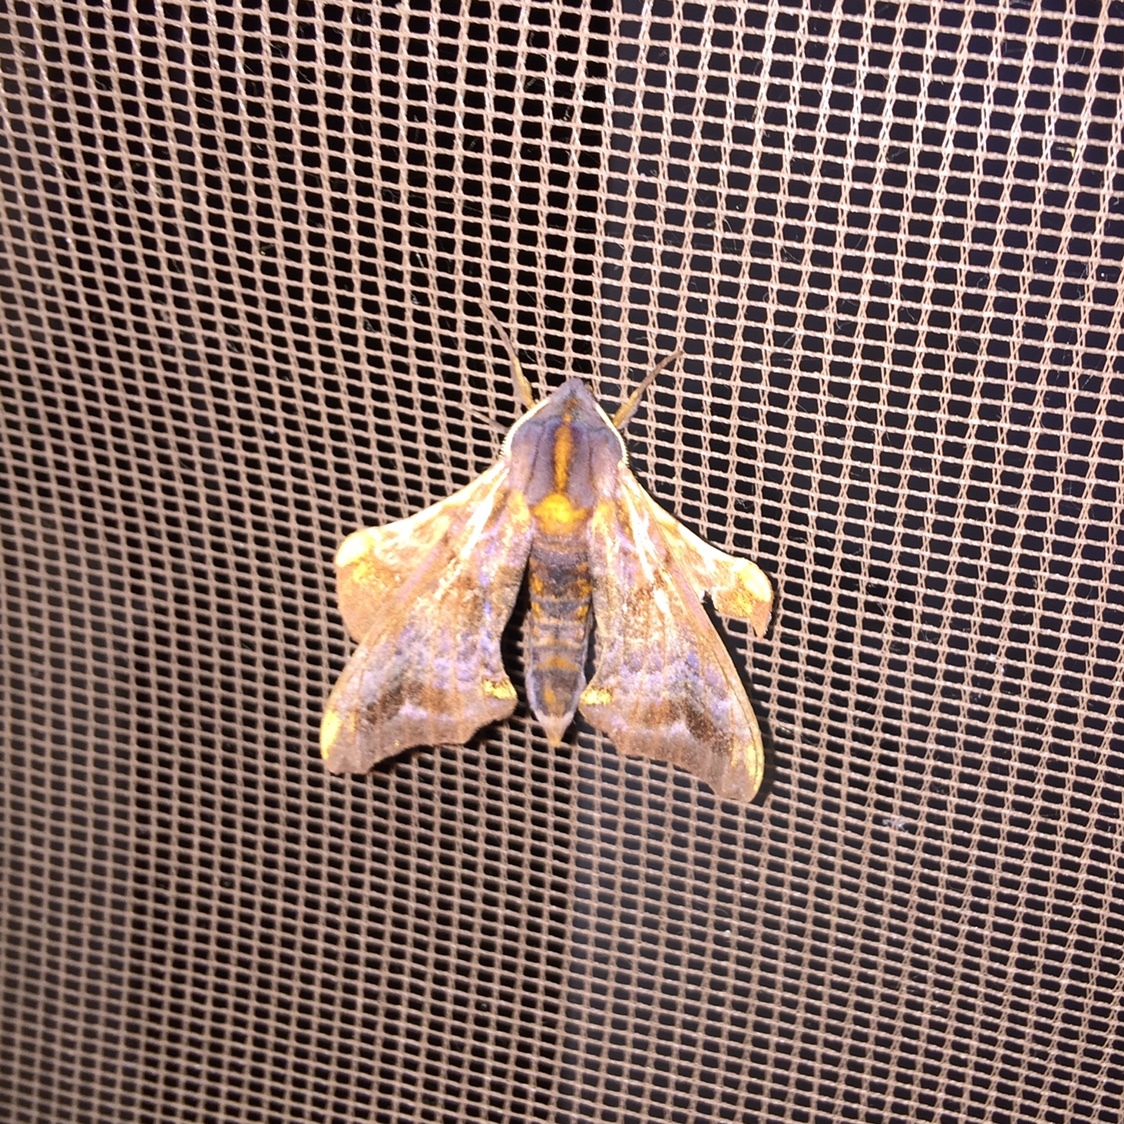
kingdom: Animalia
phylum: Arthropoda
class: Insecta
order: Lepidoptera
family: Sphingidae
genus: Paonias
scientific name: Paonias myops
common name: Small-eyed sphinx
